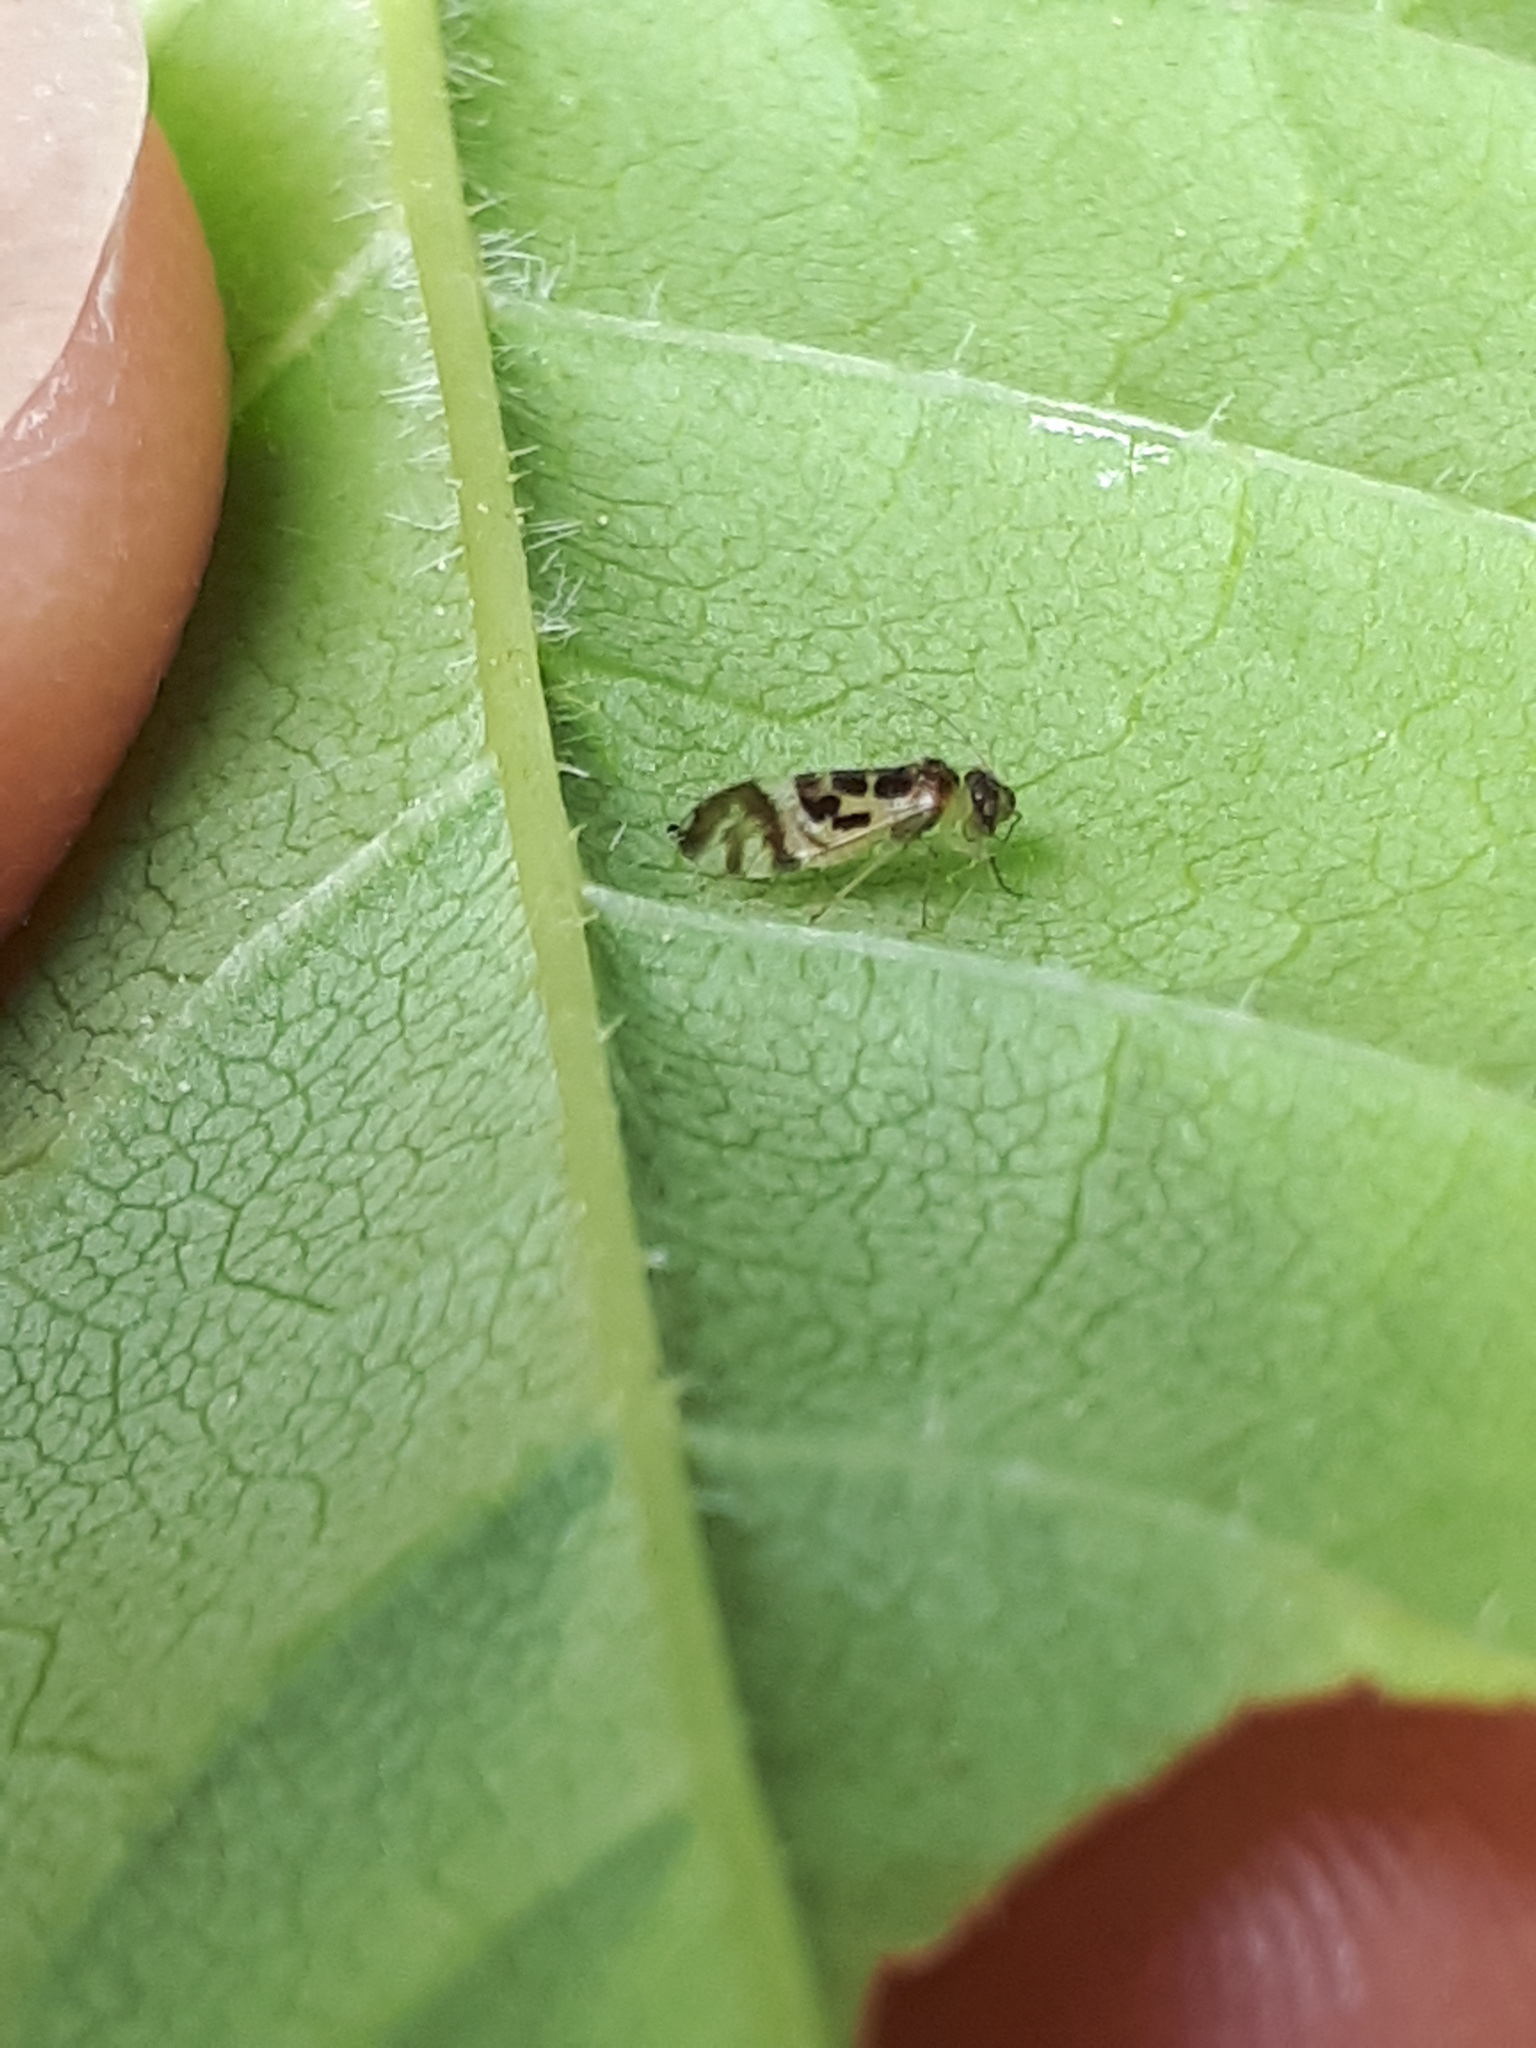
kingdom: Animalia
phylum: Arthropoda
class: Insecta
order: Psocodea
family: Stenopsocidae
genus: Graphopsocus
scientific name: Graphopsocus cruciatus
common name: Lizard bark louse
